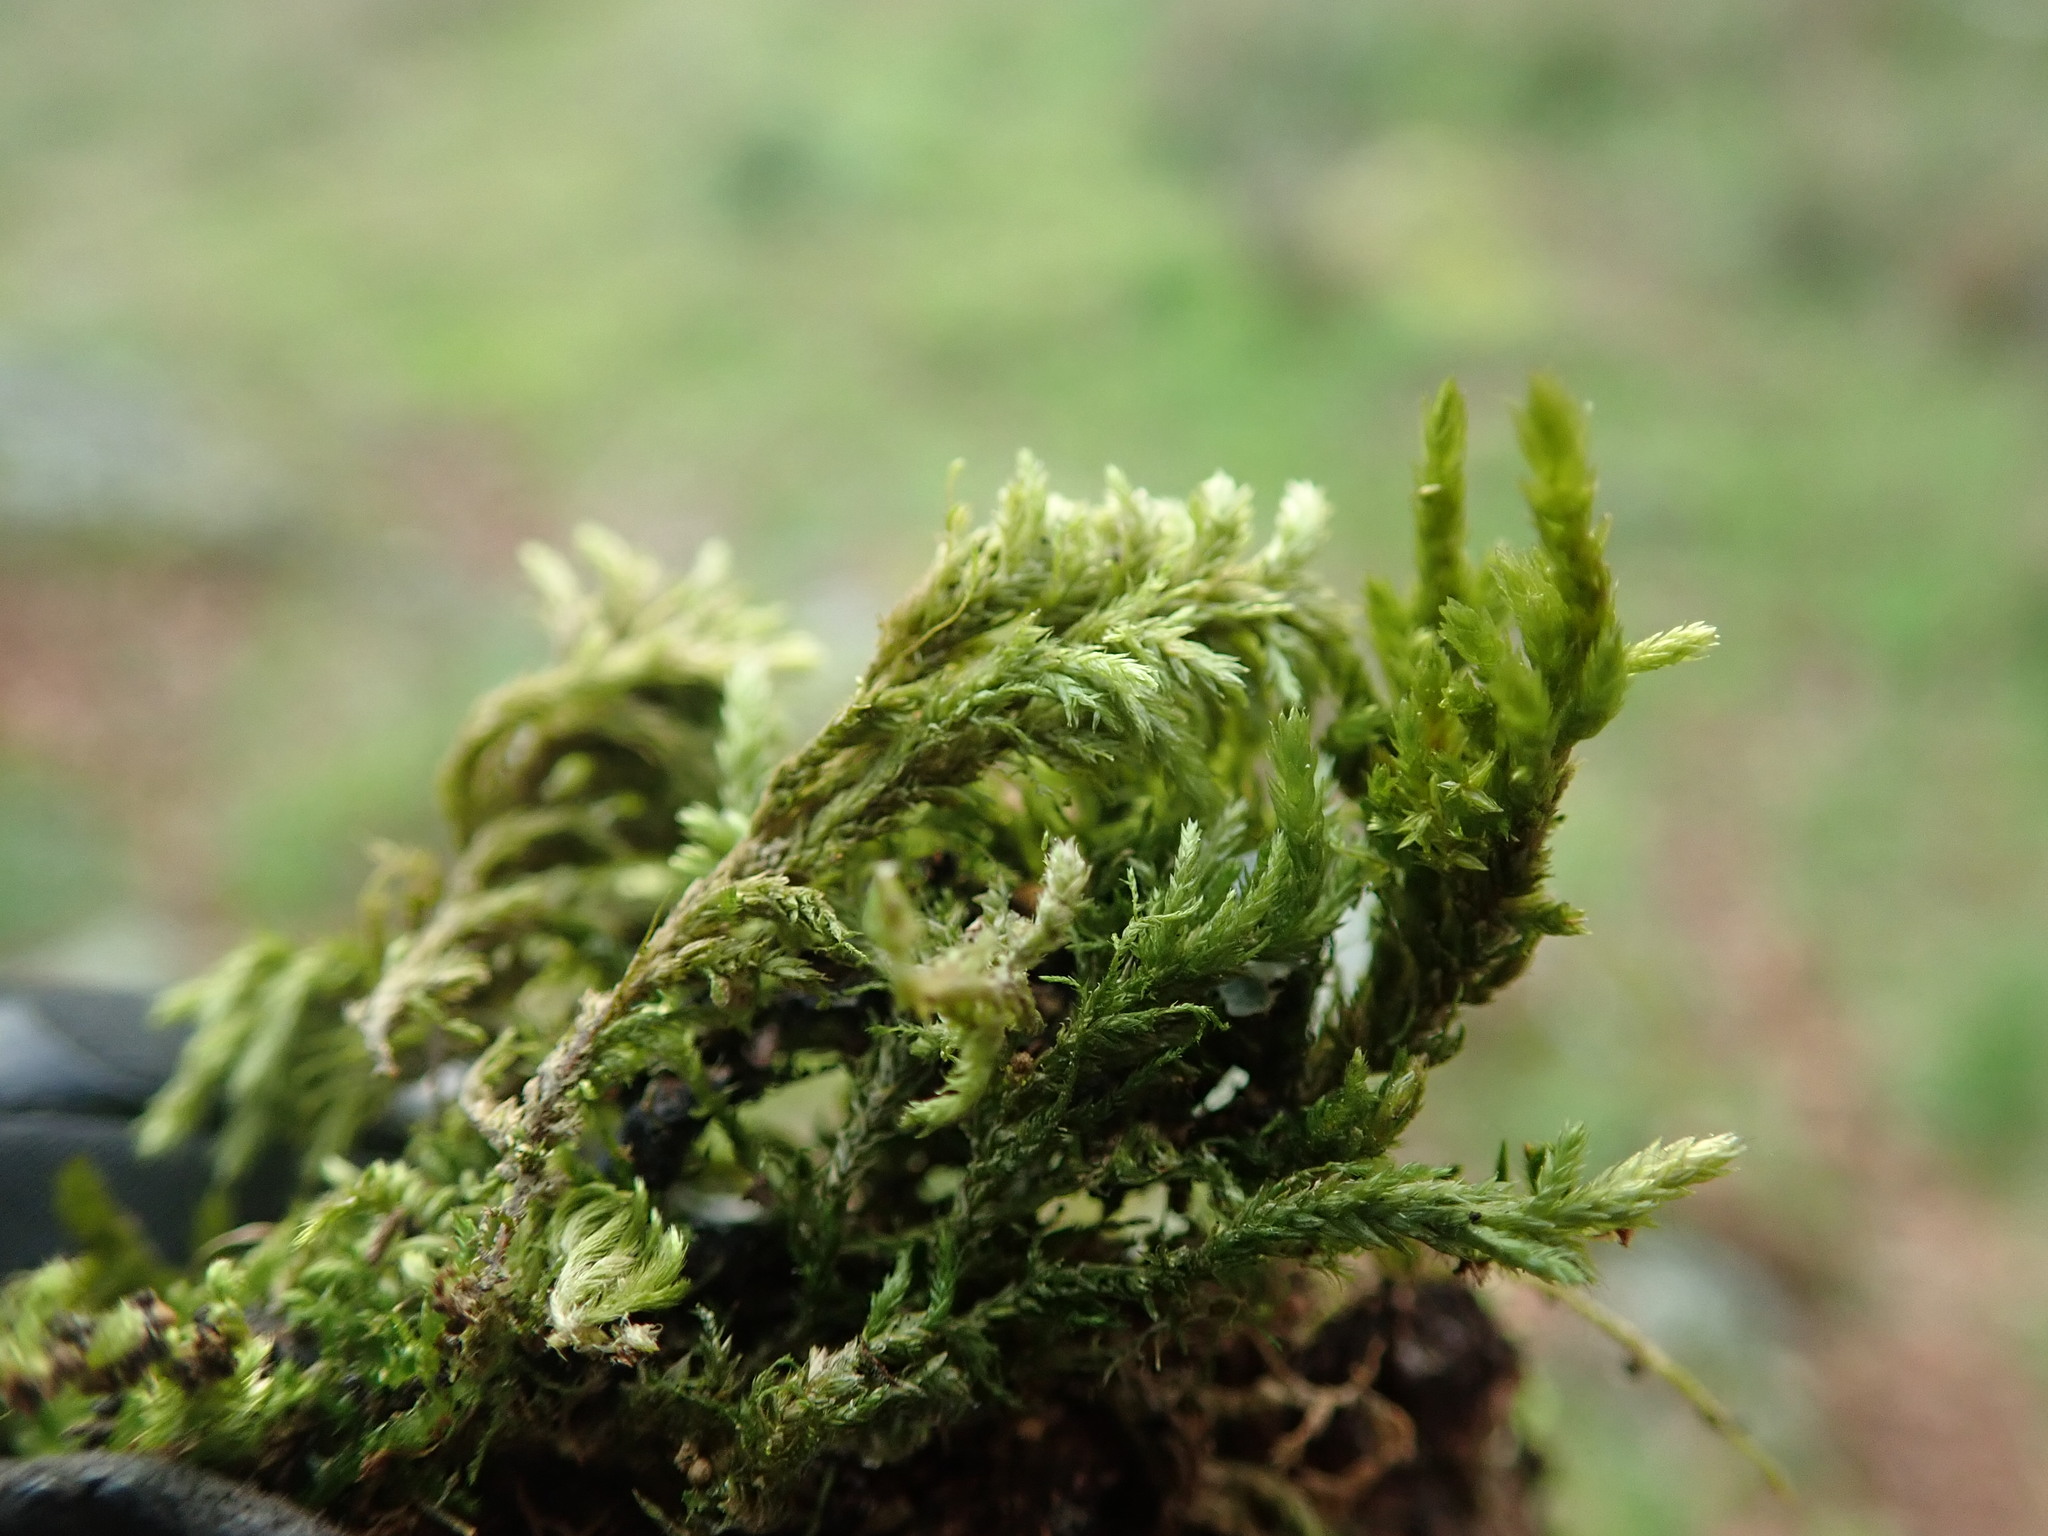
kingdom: Plantae
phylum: Bryophyta
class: Bryopsida
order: Hypnales
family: Neckeraceae
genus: Neckera
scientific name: Neckera californica
